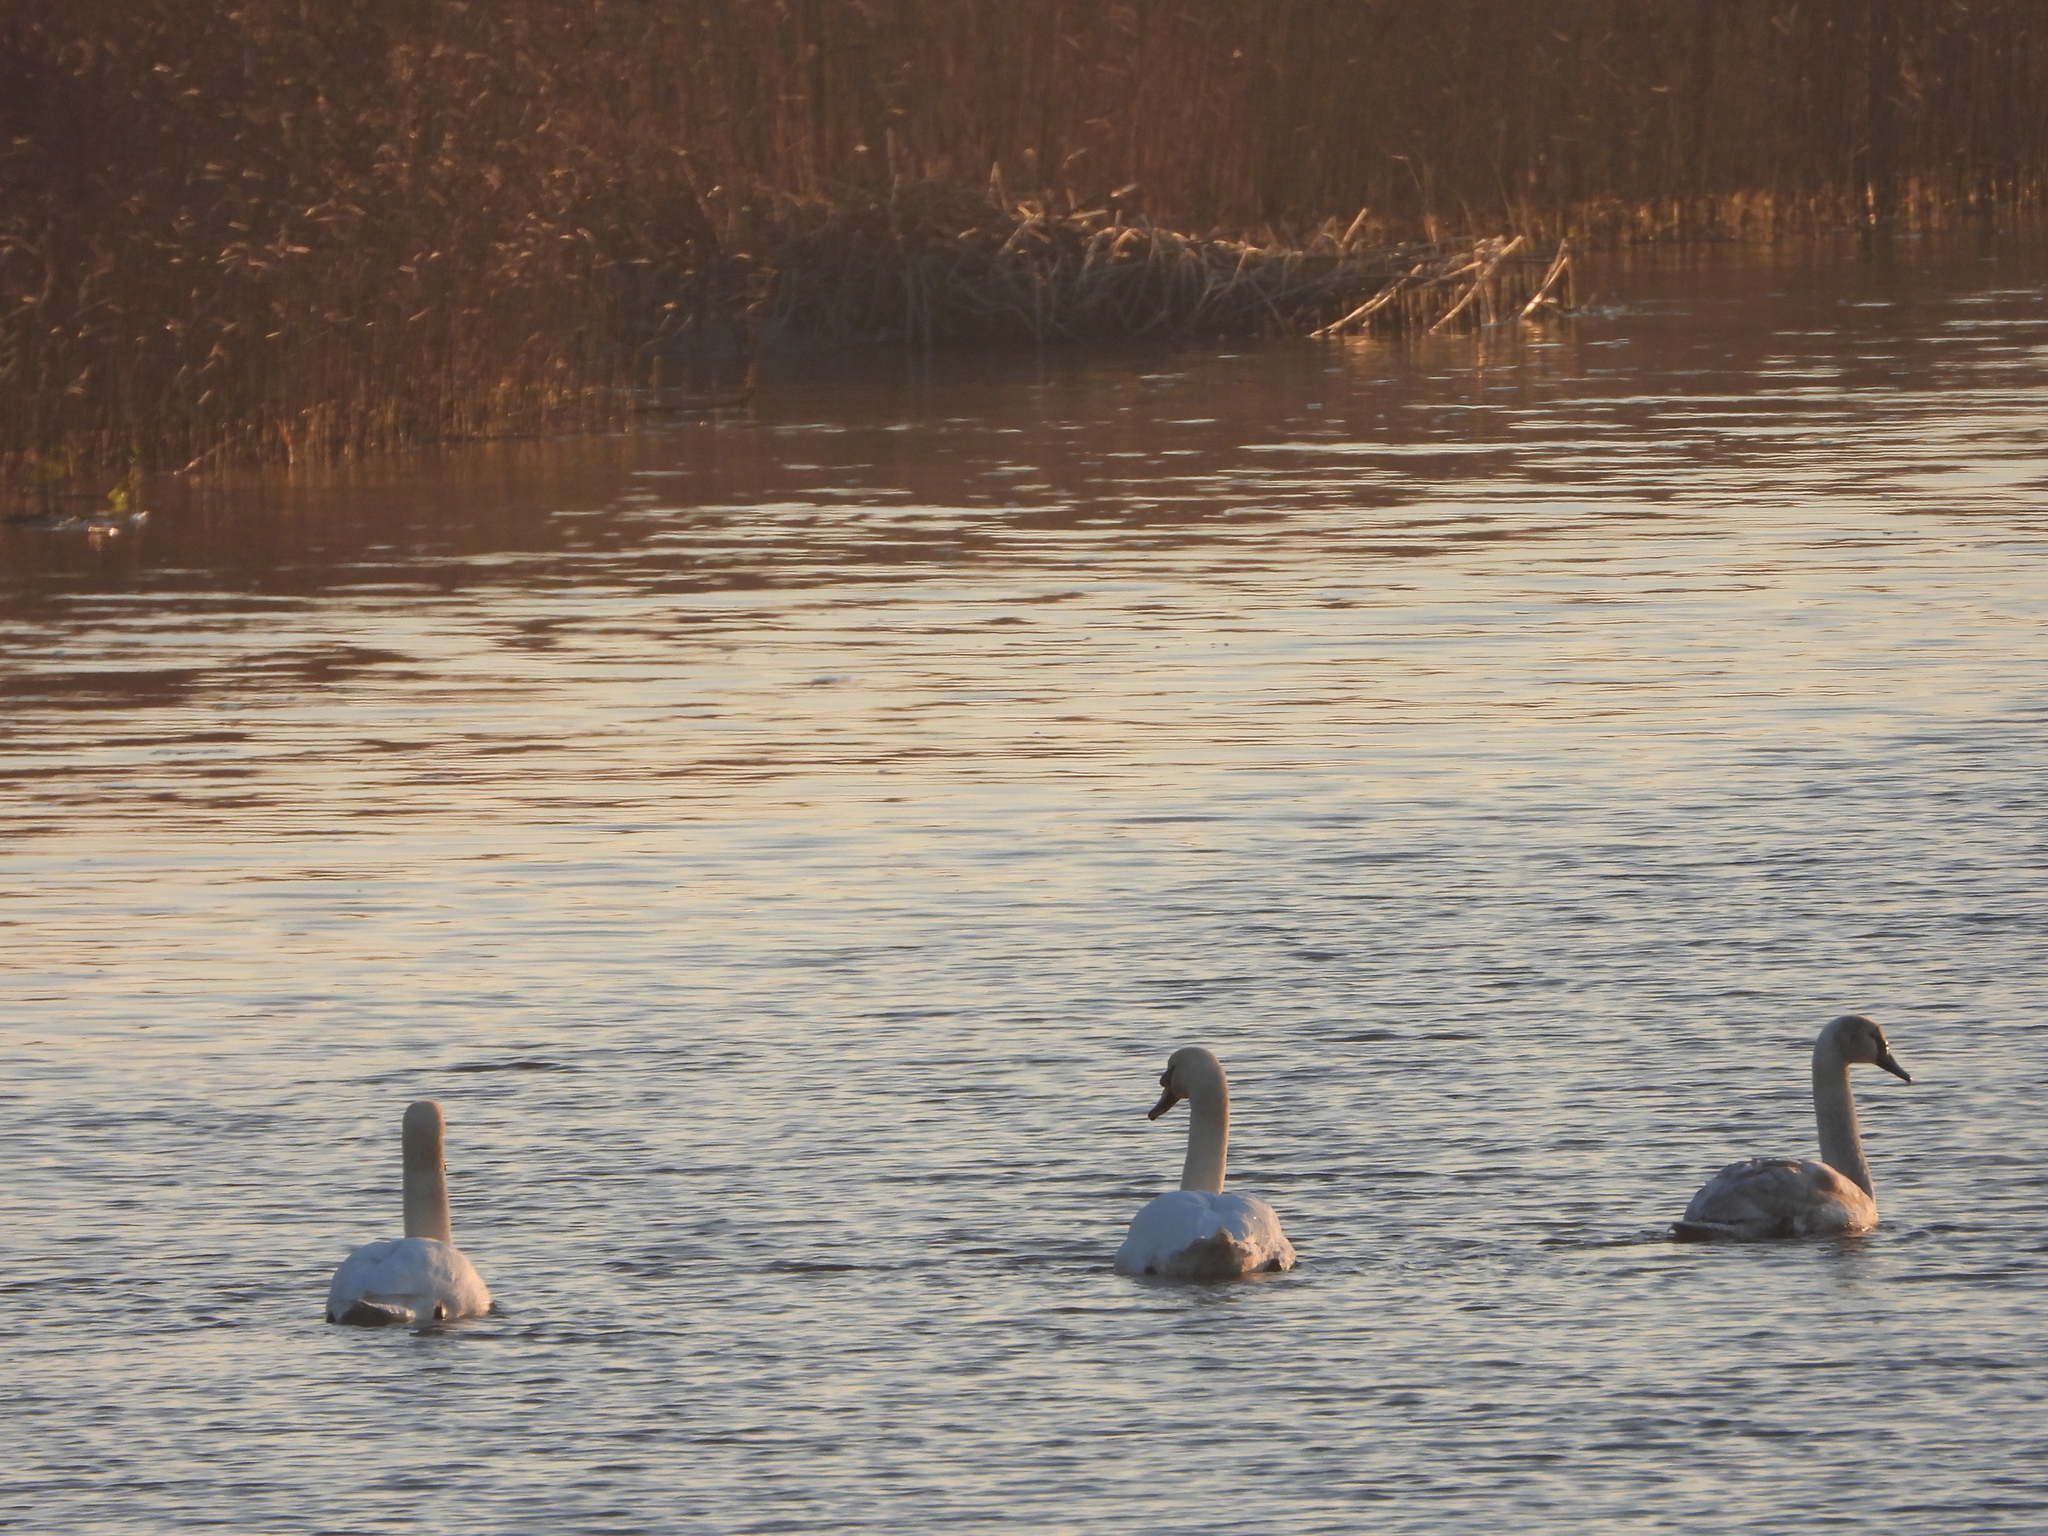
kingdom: Animalia
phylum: Chordata
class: Aves
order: Anseriformes
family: Anatidae
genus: Cygnus
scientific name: Cygnus olor
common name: Mute swan
